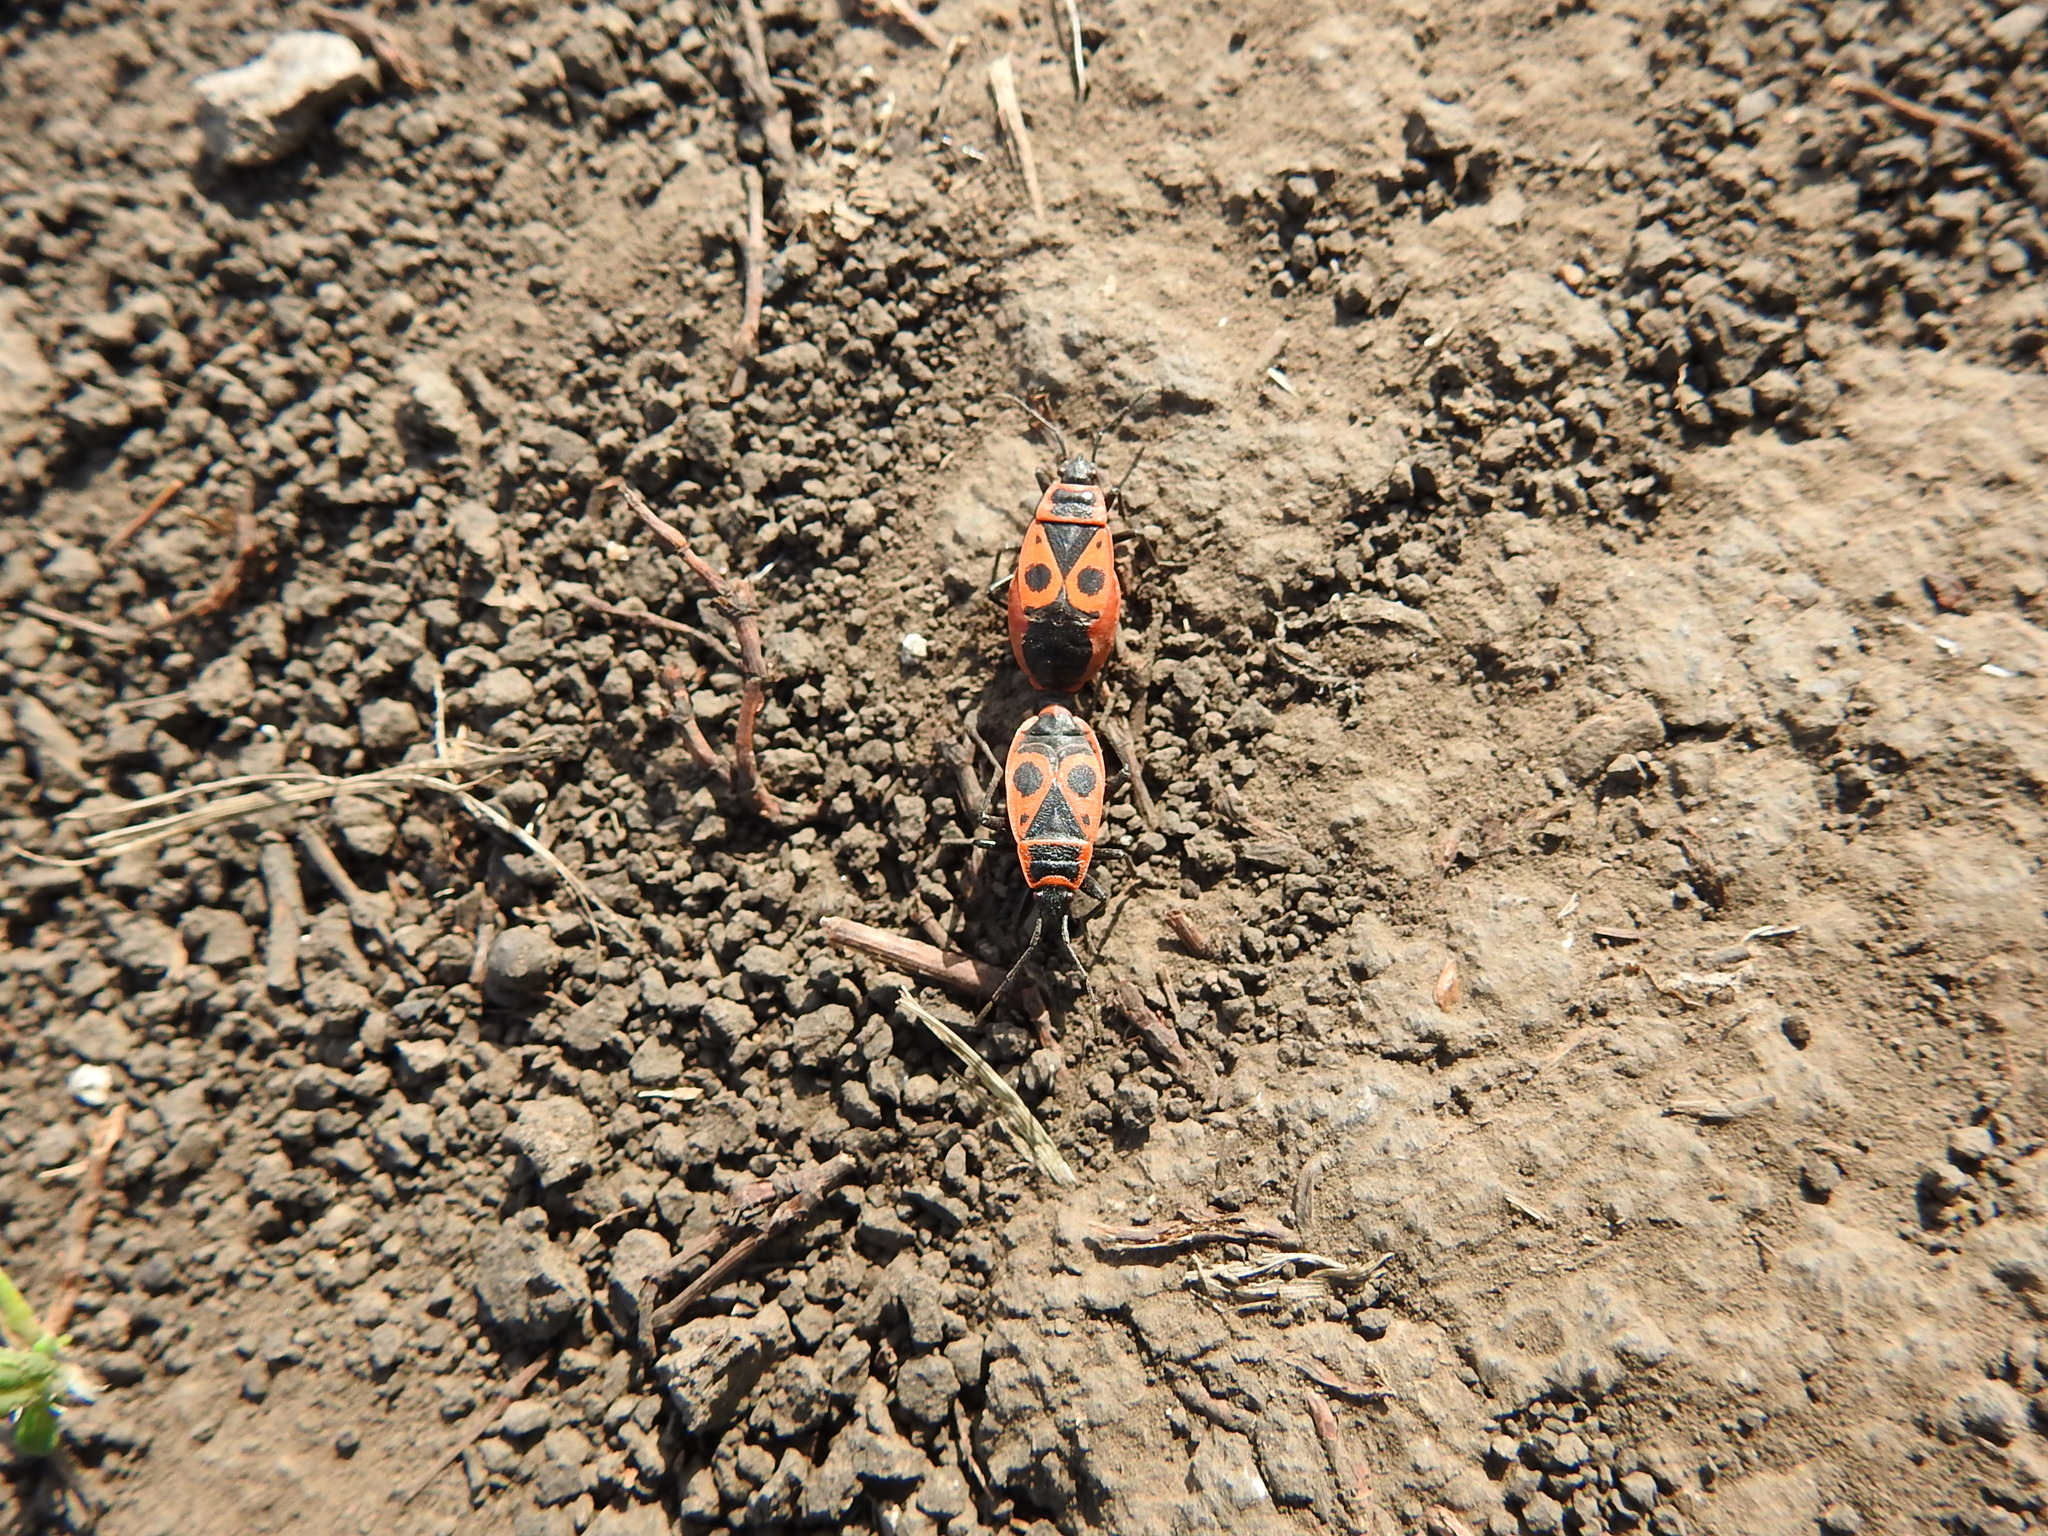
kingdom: Animalia
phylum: Arthropoda
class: Insecta
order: Hemiptera
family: Pyrrhocoridae
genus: Pyrrhocoris
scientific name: Pyrrhocoris apterus
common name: Firebug
